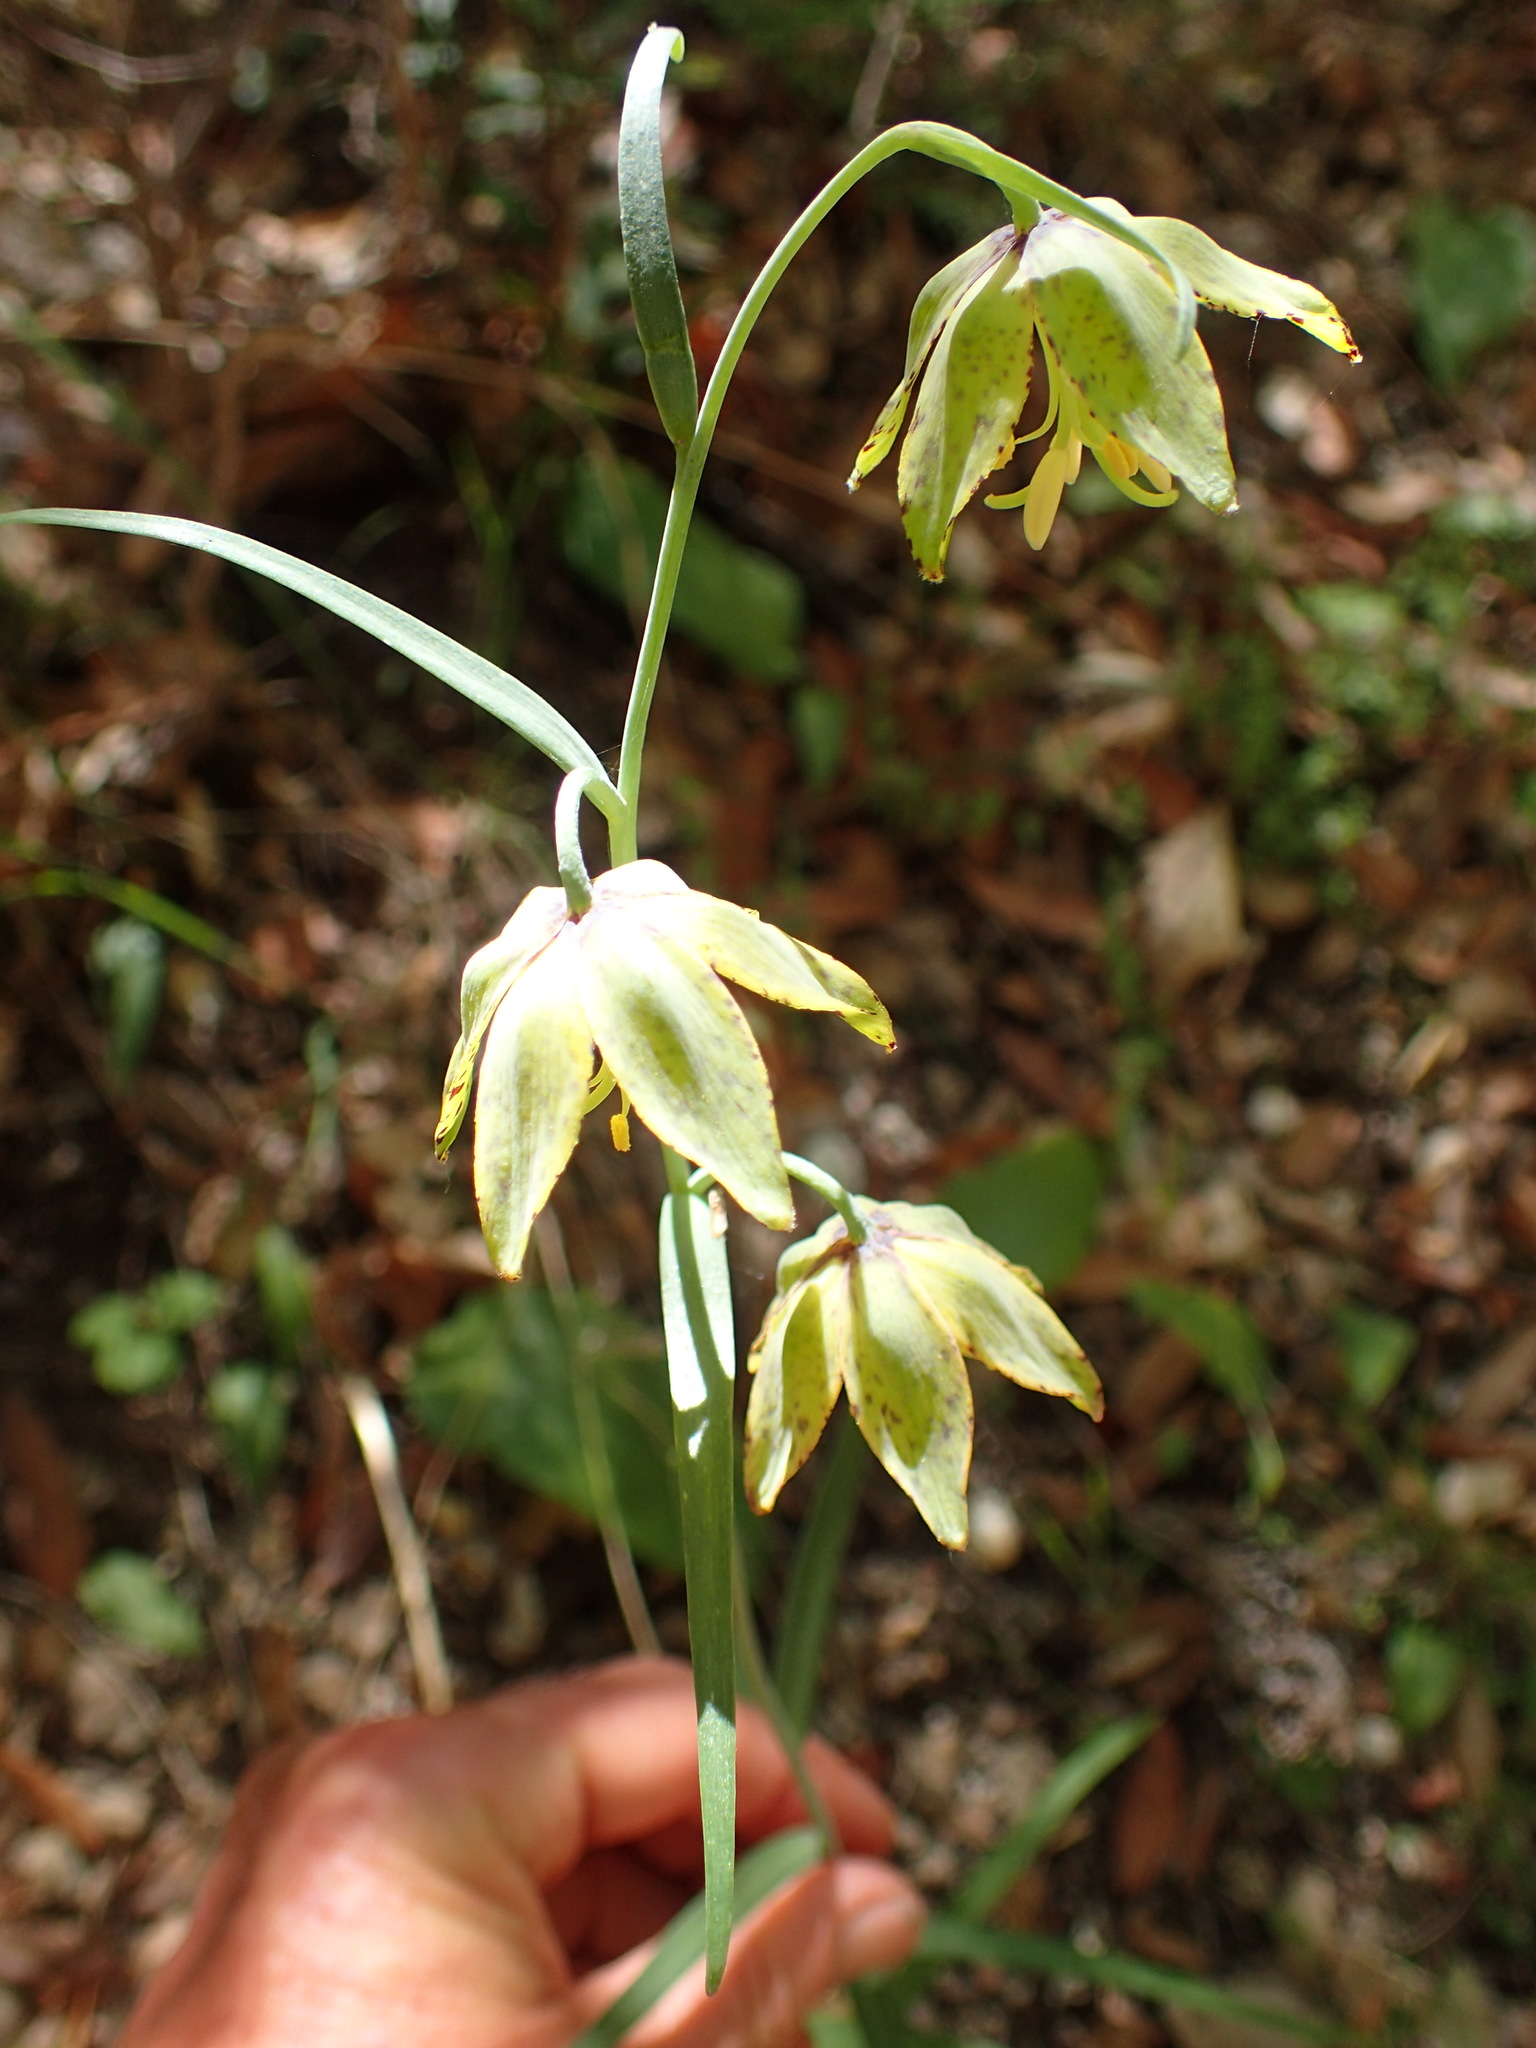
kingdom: Plantae
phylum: Tracheophyta
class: Liliopsida
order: Liliales
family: Liliaceae
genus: Fritillaria
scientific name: Fritillaria ojaiensis
